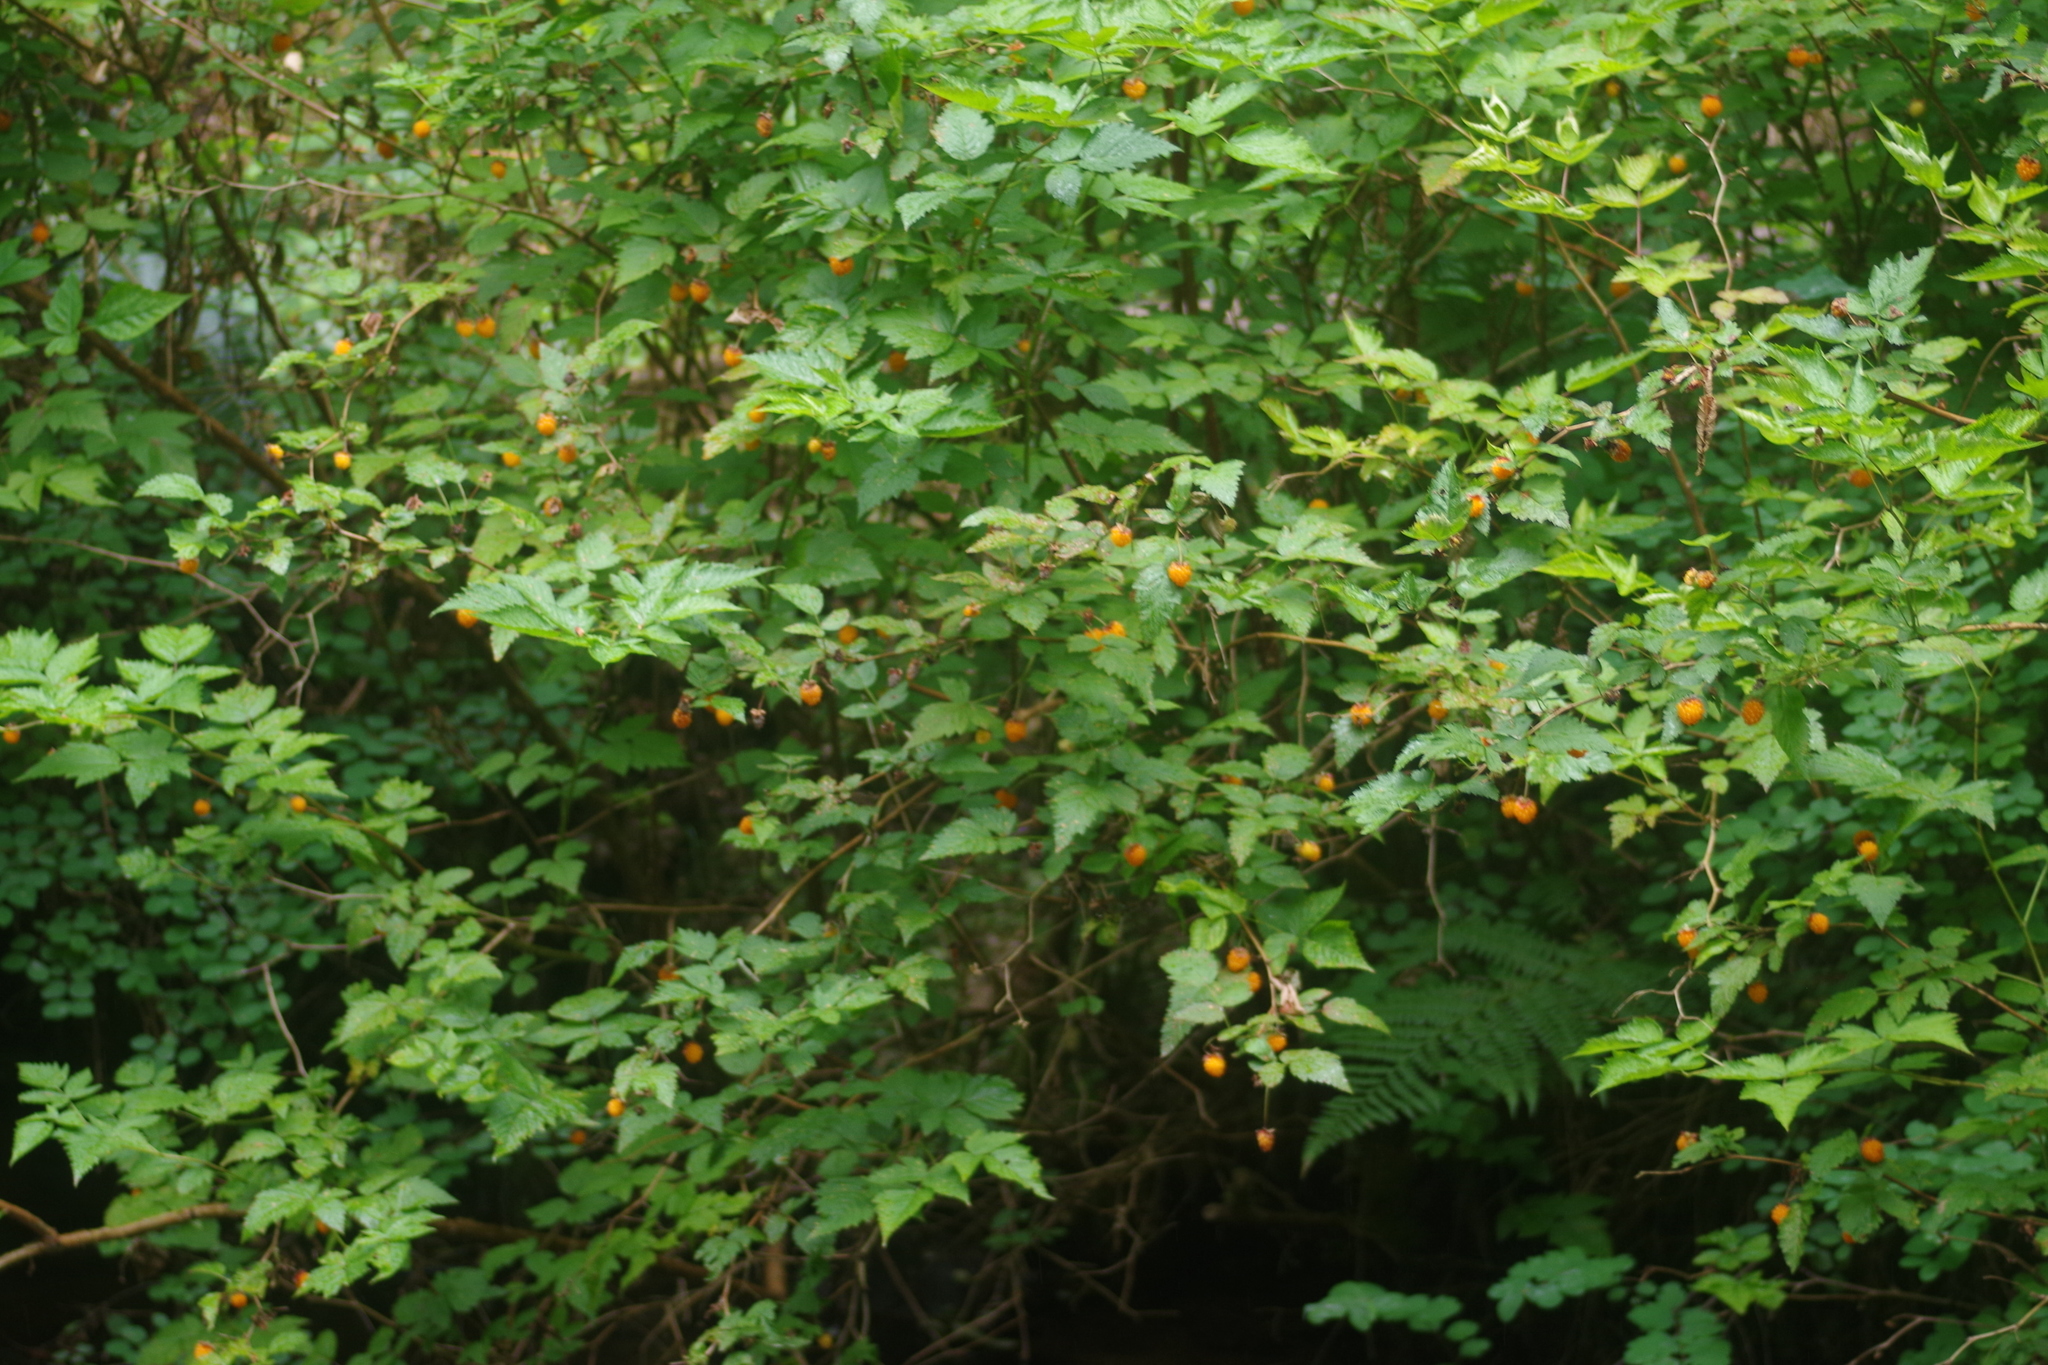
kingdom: Plantae
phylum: Tracheophyta
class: Magnoliopsida
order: Rosales
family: Rosaceae
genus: Rubus
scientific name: Rubus spectabilis
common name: Salmonberry
